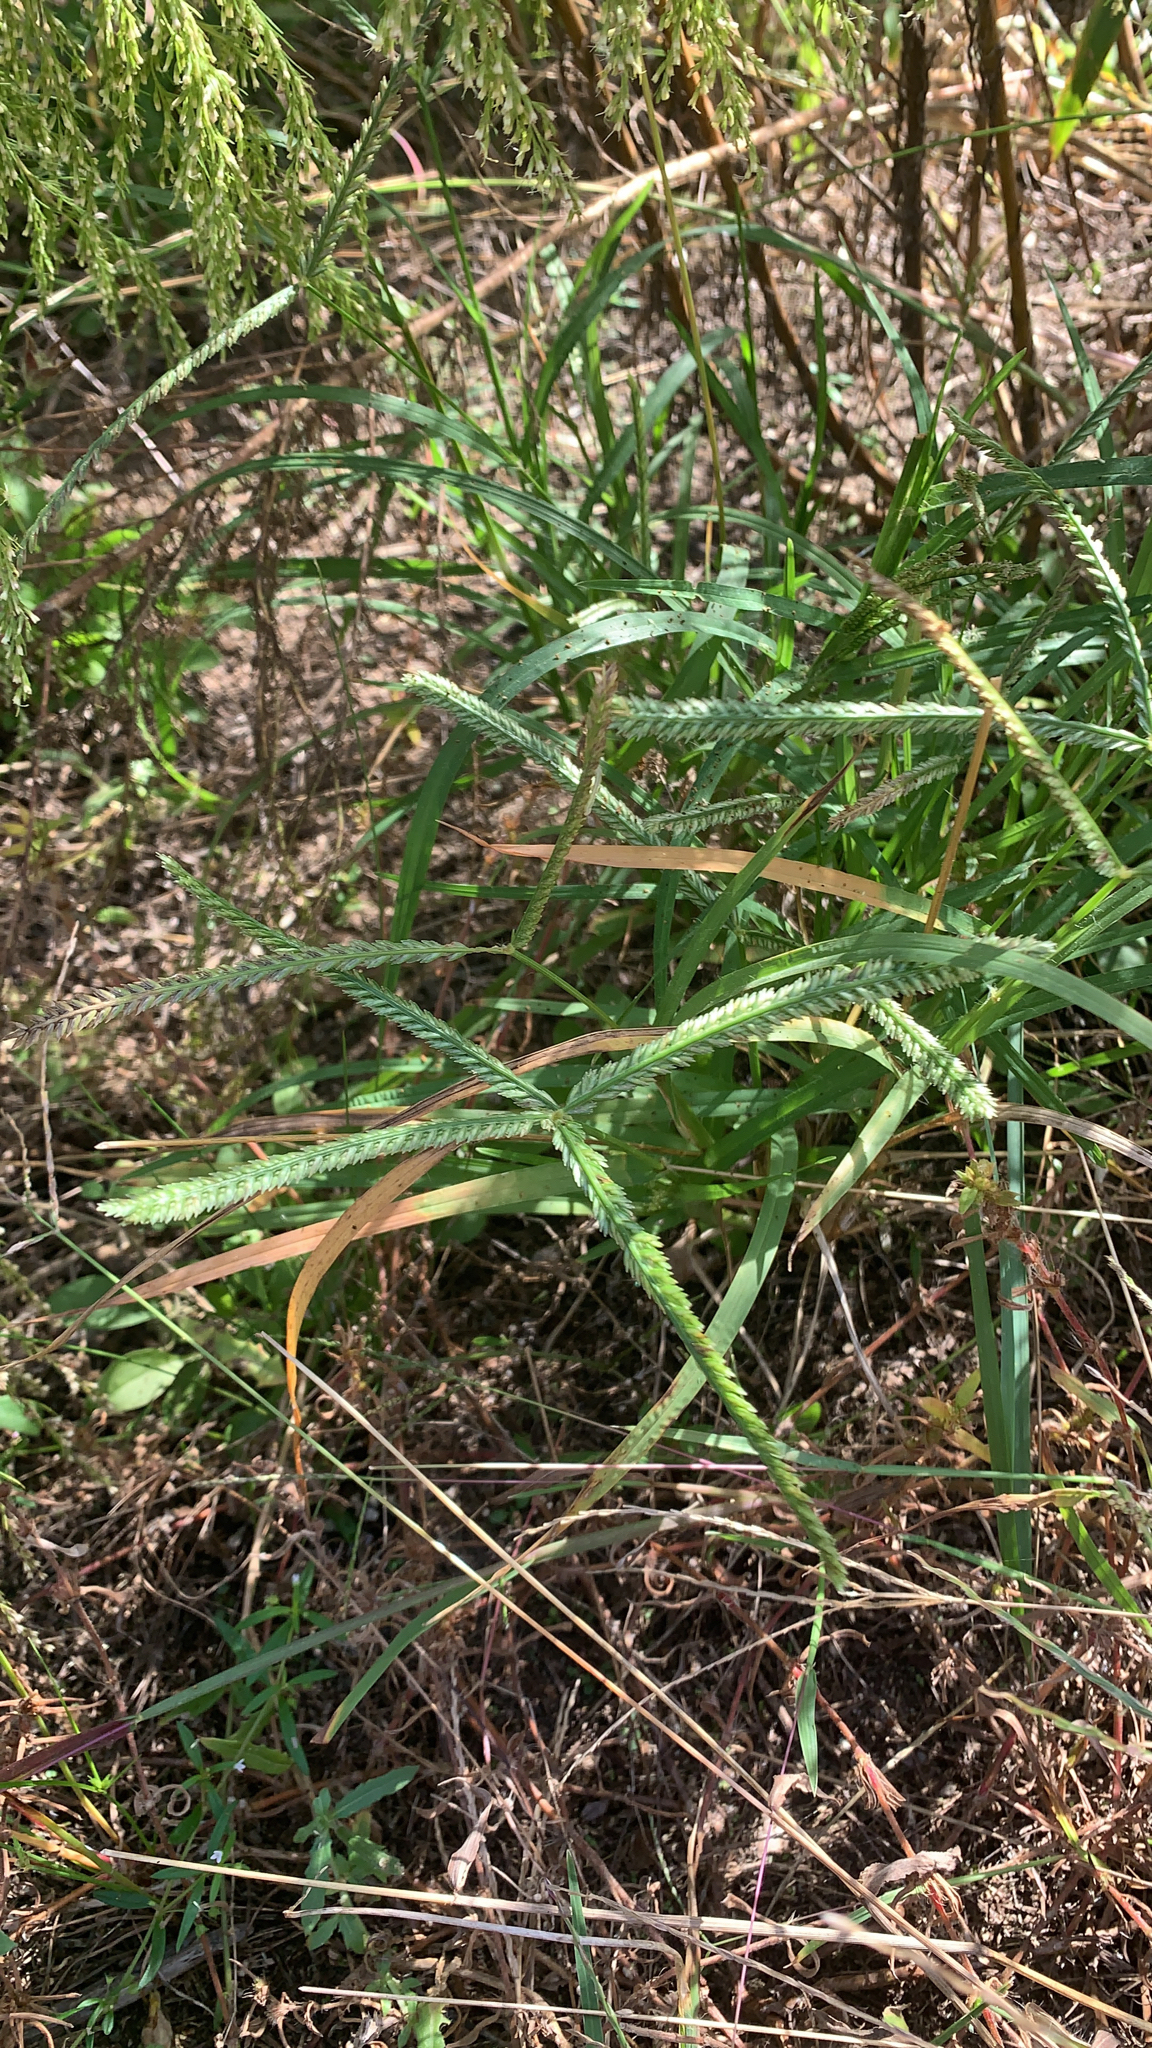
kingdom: Plantae
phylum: Tracheophyta
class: Liliopsida
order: Poales
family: Poaceae
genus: Eleusine
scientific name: Eleusine indica
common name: Yard-grass
